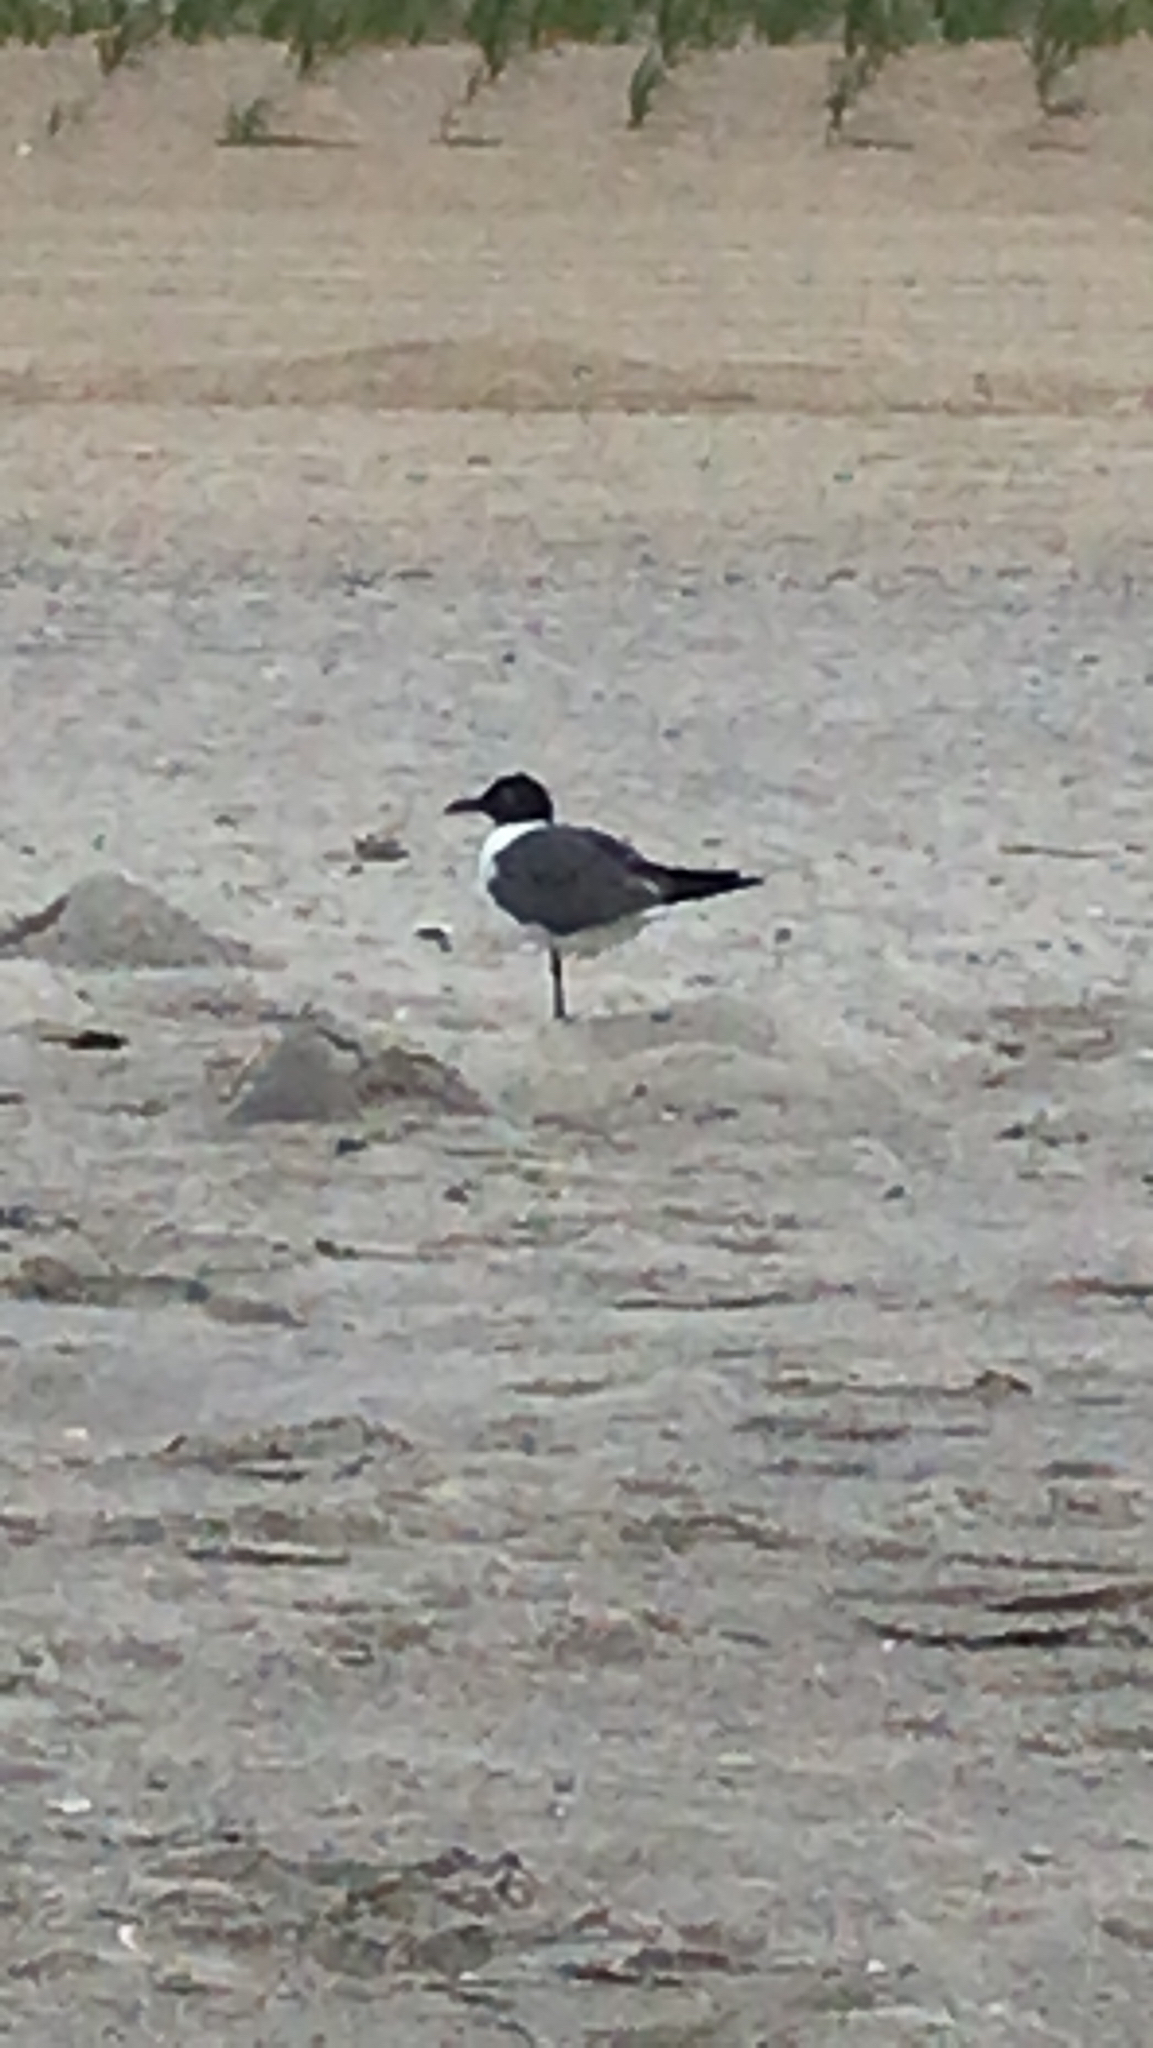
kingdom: Animalia
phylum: Chordata
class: Aves
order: Charadriiformes
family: Laridae
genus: Leucophaeus
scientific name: Leucophaeus atricilla
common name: Laughing gull
